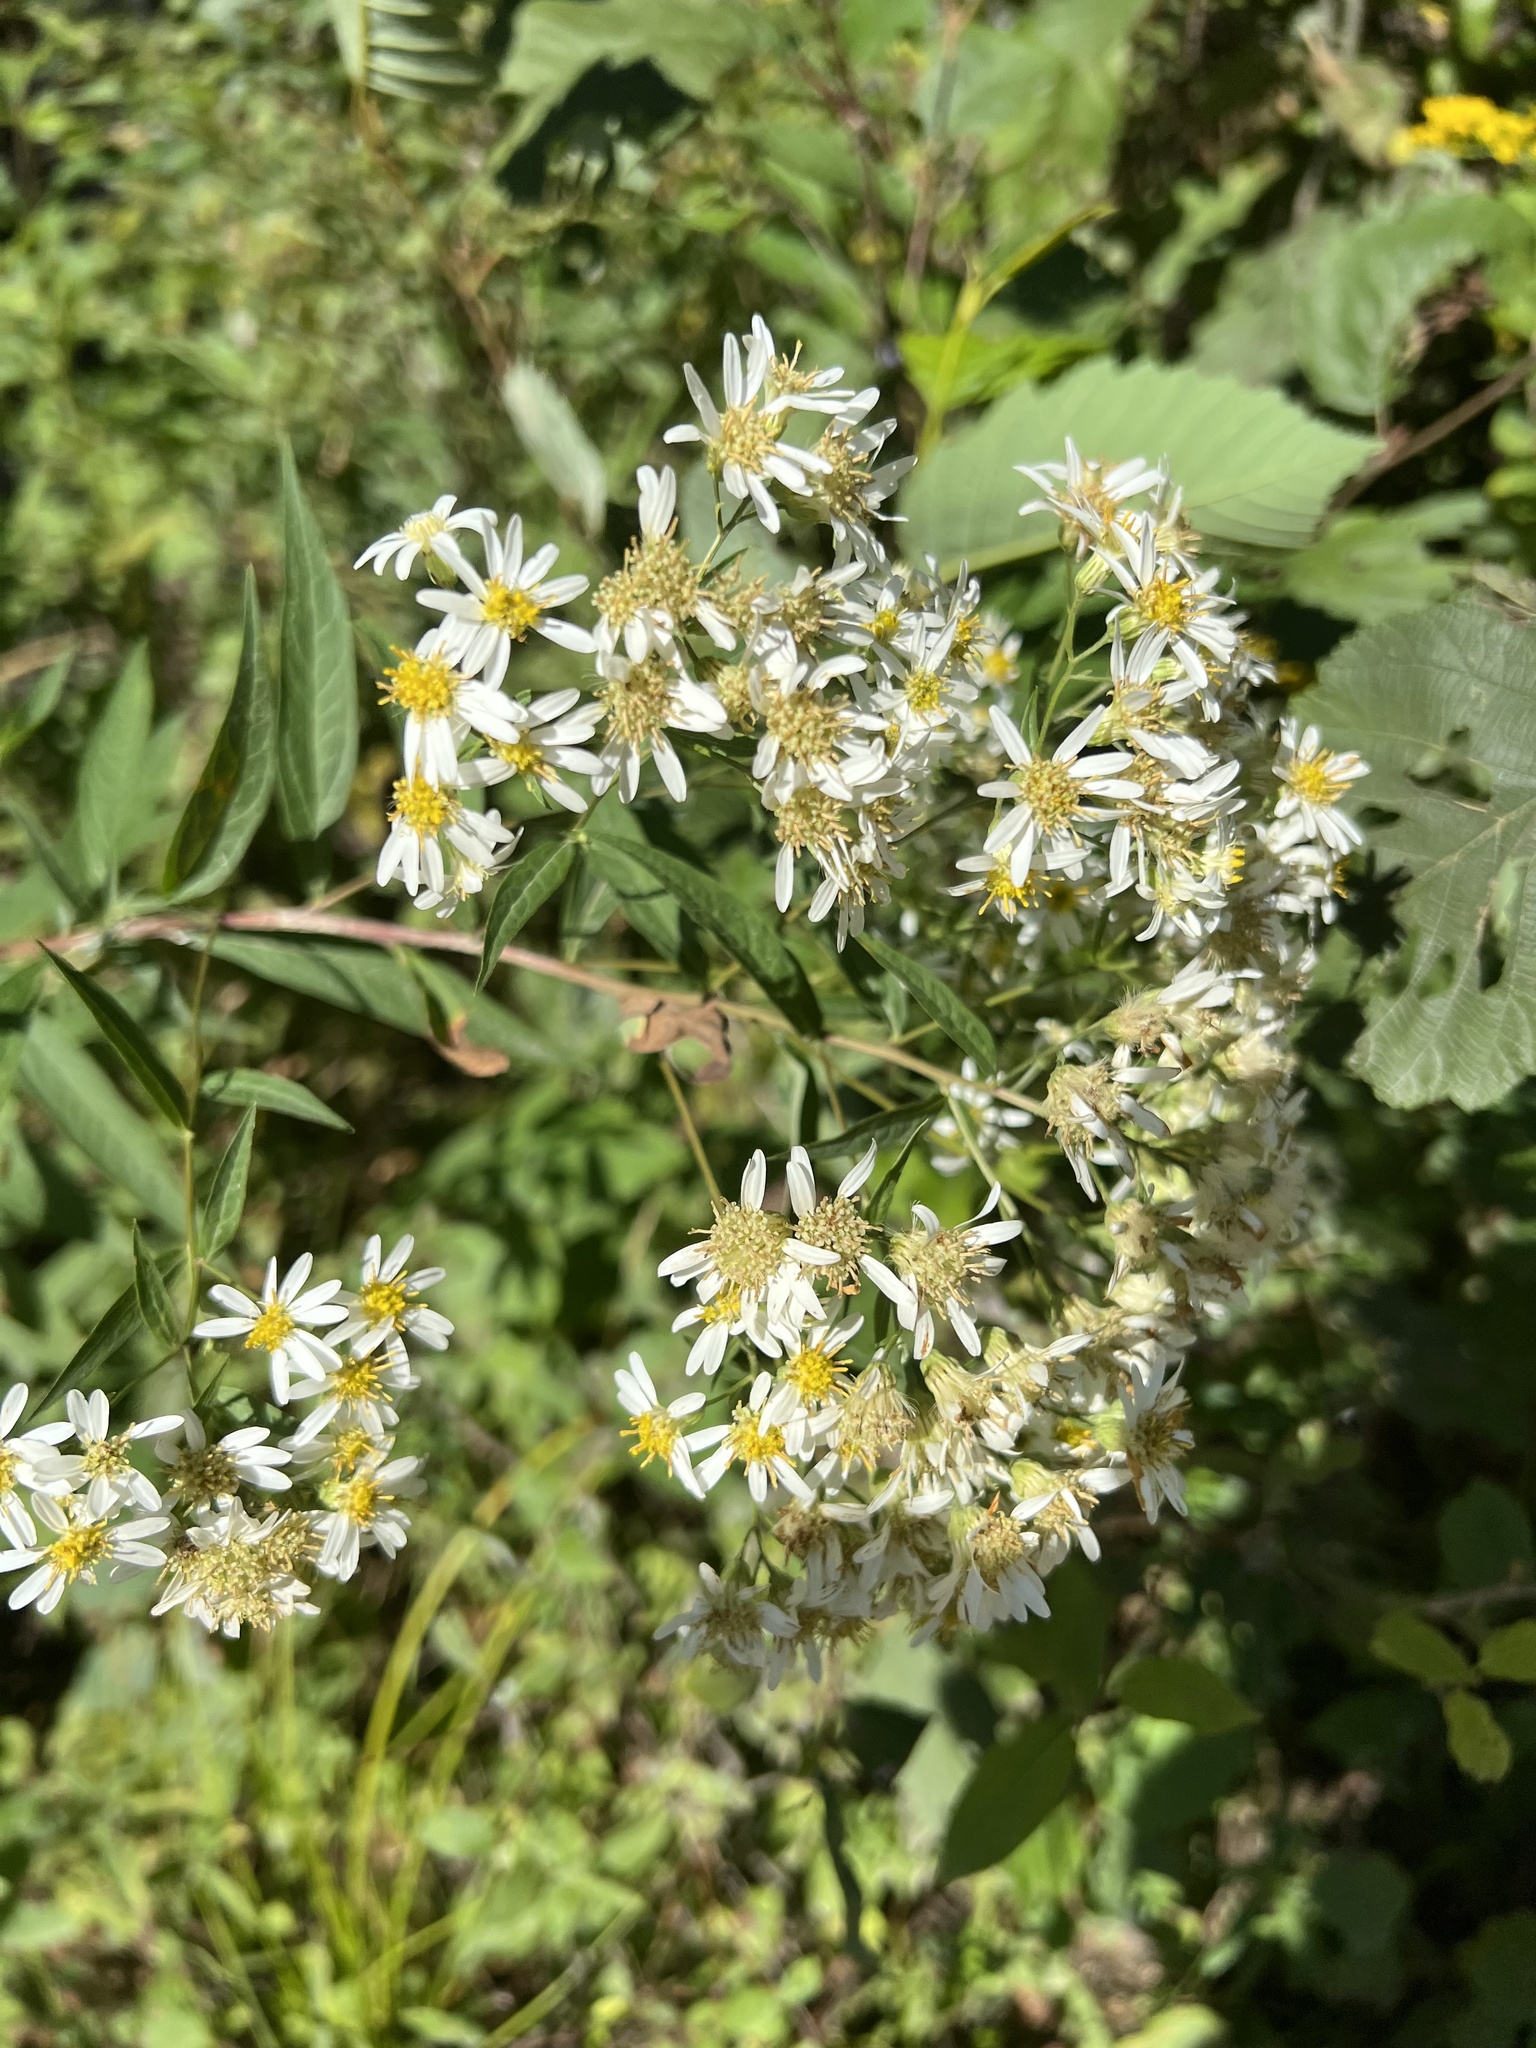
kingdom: Plantae
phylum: Tracheophyta
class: Magnoliopsida
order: Asterales
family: Asteraceae
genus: Doellingeria
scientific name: Doellingeria umbellata
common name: Flat-top white aster
